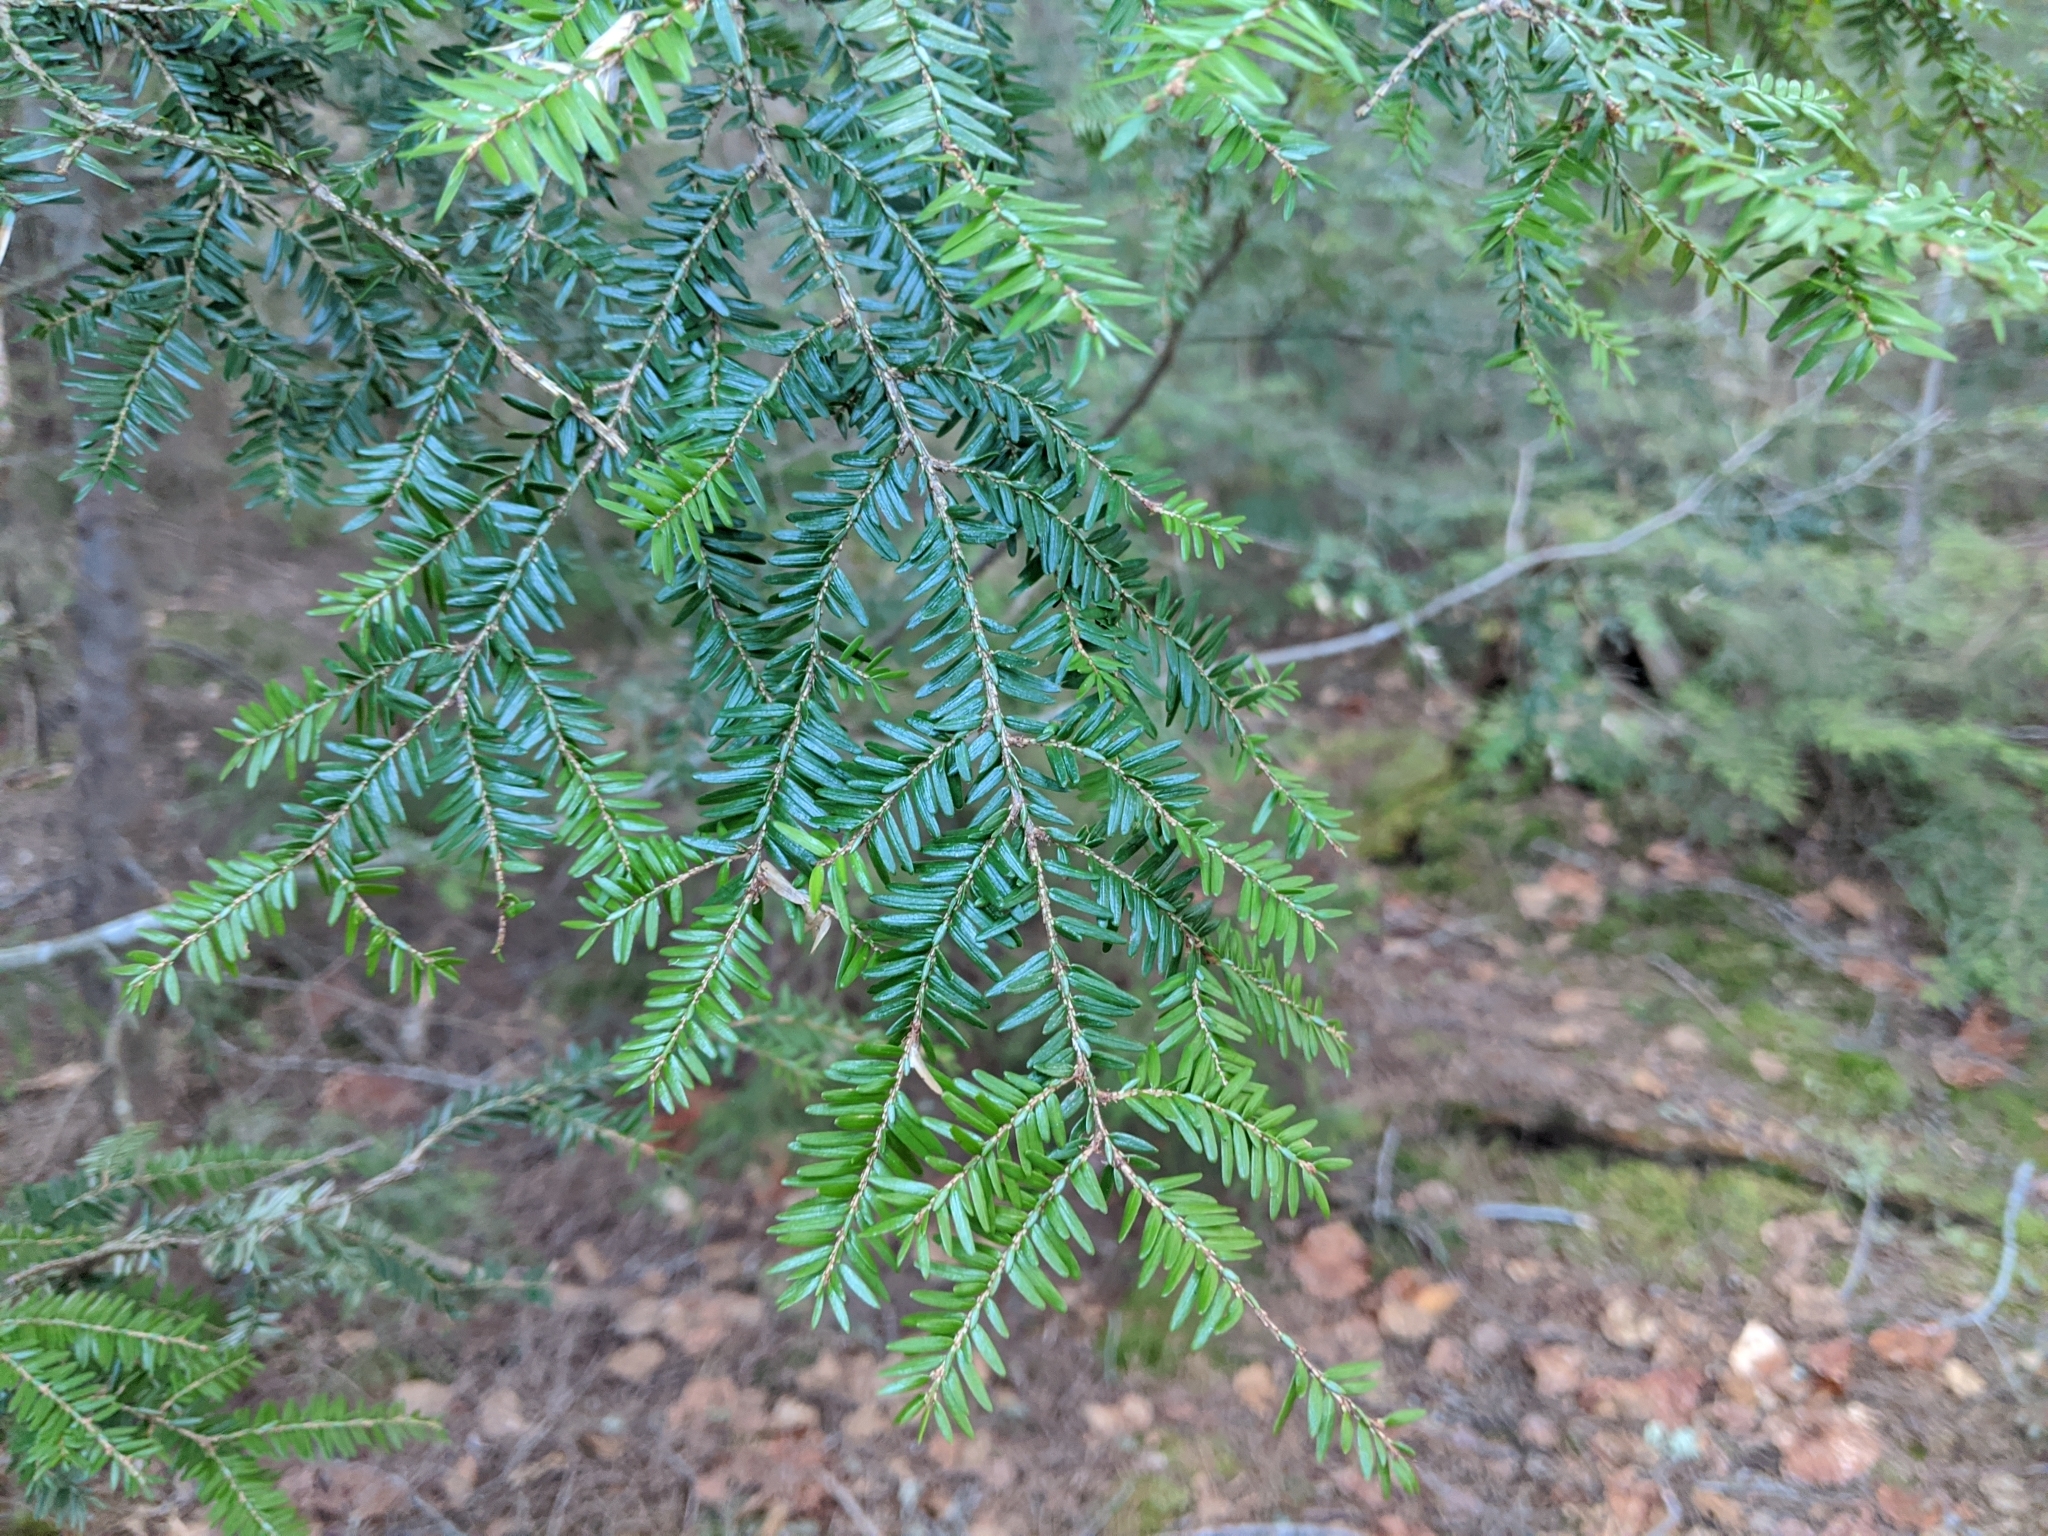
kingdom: Plantae
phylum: Tracheophyta
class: Pinopsida
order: Pinales
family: Pinaceae
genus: Tsuga
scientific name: Tsuga canadensis
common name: Eastern hemlock
